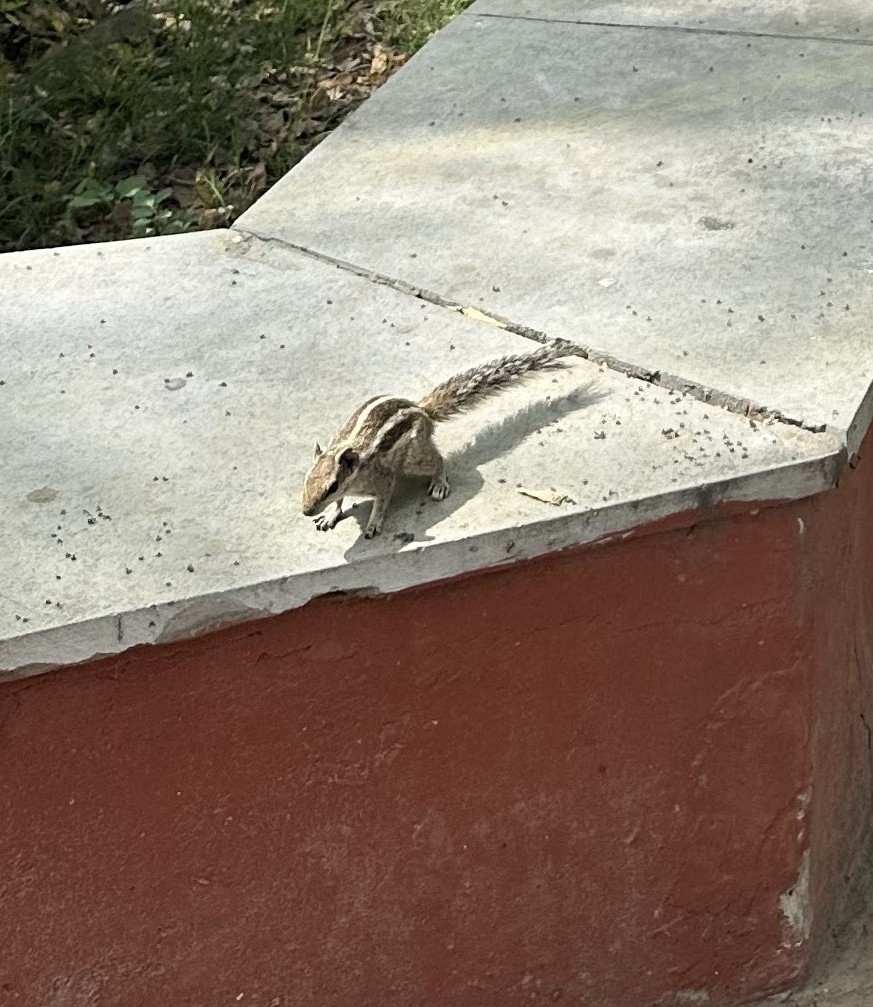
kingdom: Animalia
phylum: Chordata
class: Mammalia
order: Rodentia
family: Sciuridae
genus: Funambulus
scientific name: Funambulus pennantii
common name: Northern palm squirrel
